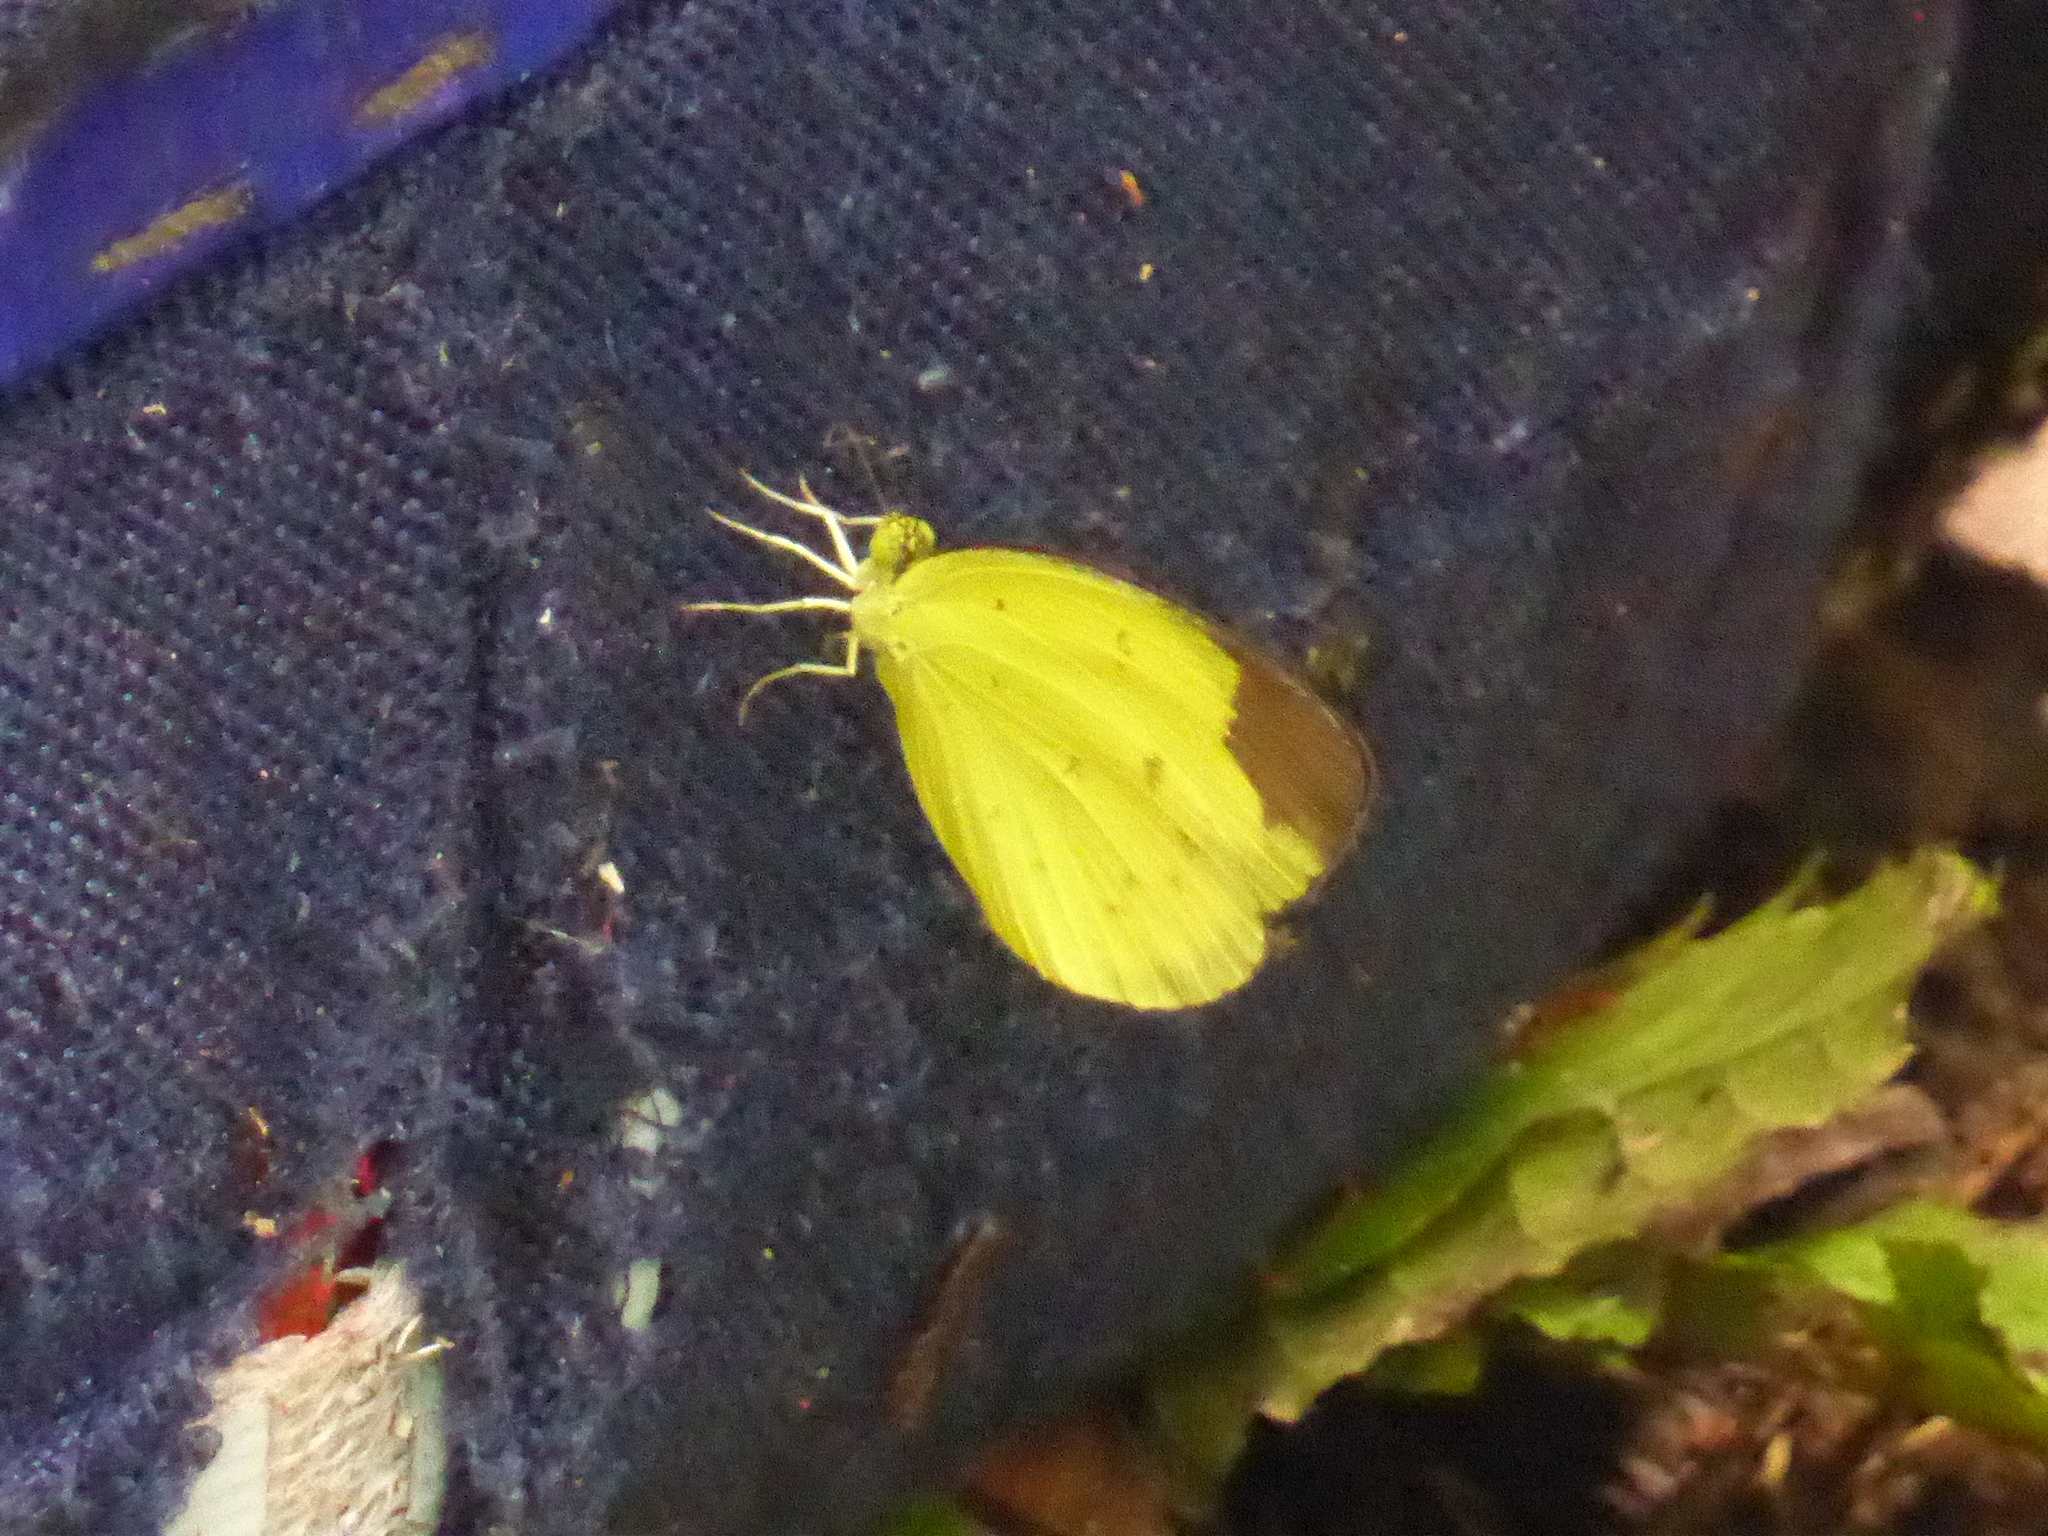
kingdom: Animalia
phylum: Arthropoda
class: Insecta
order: Lepidoptera
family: Pieridae
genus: Eurema
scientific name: Eurema sari
